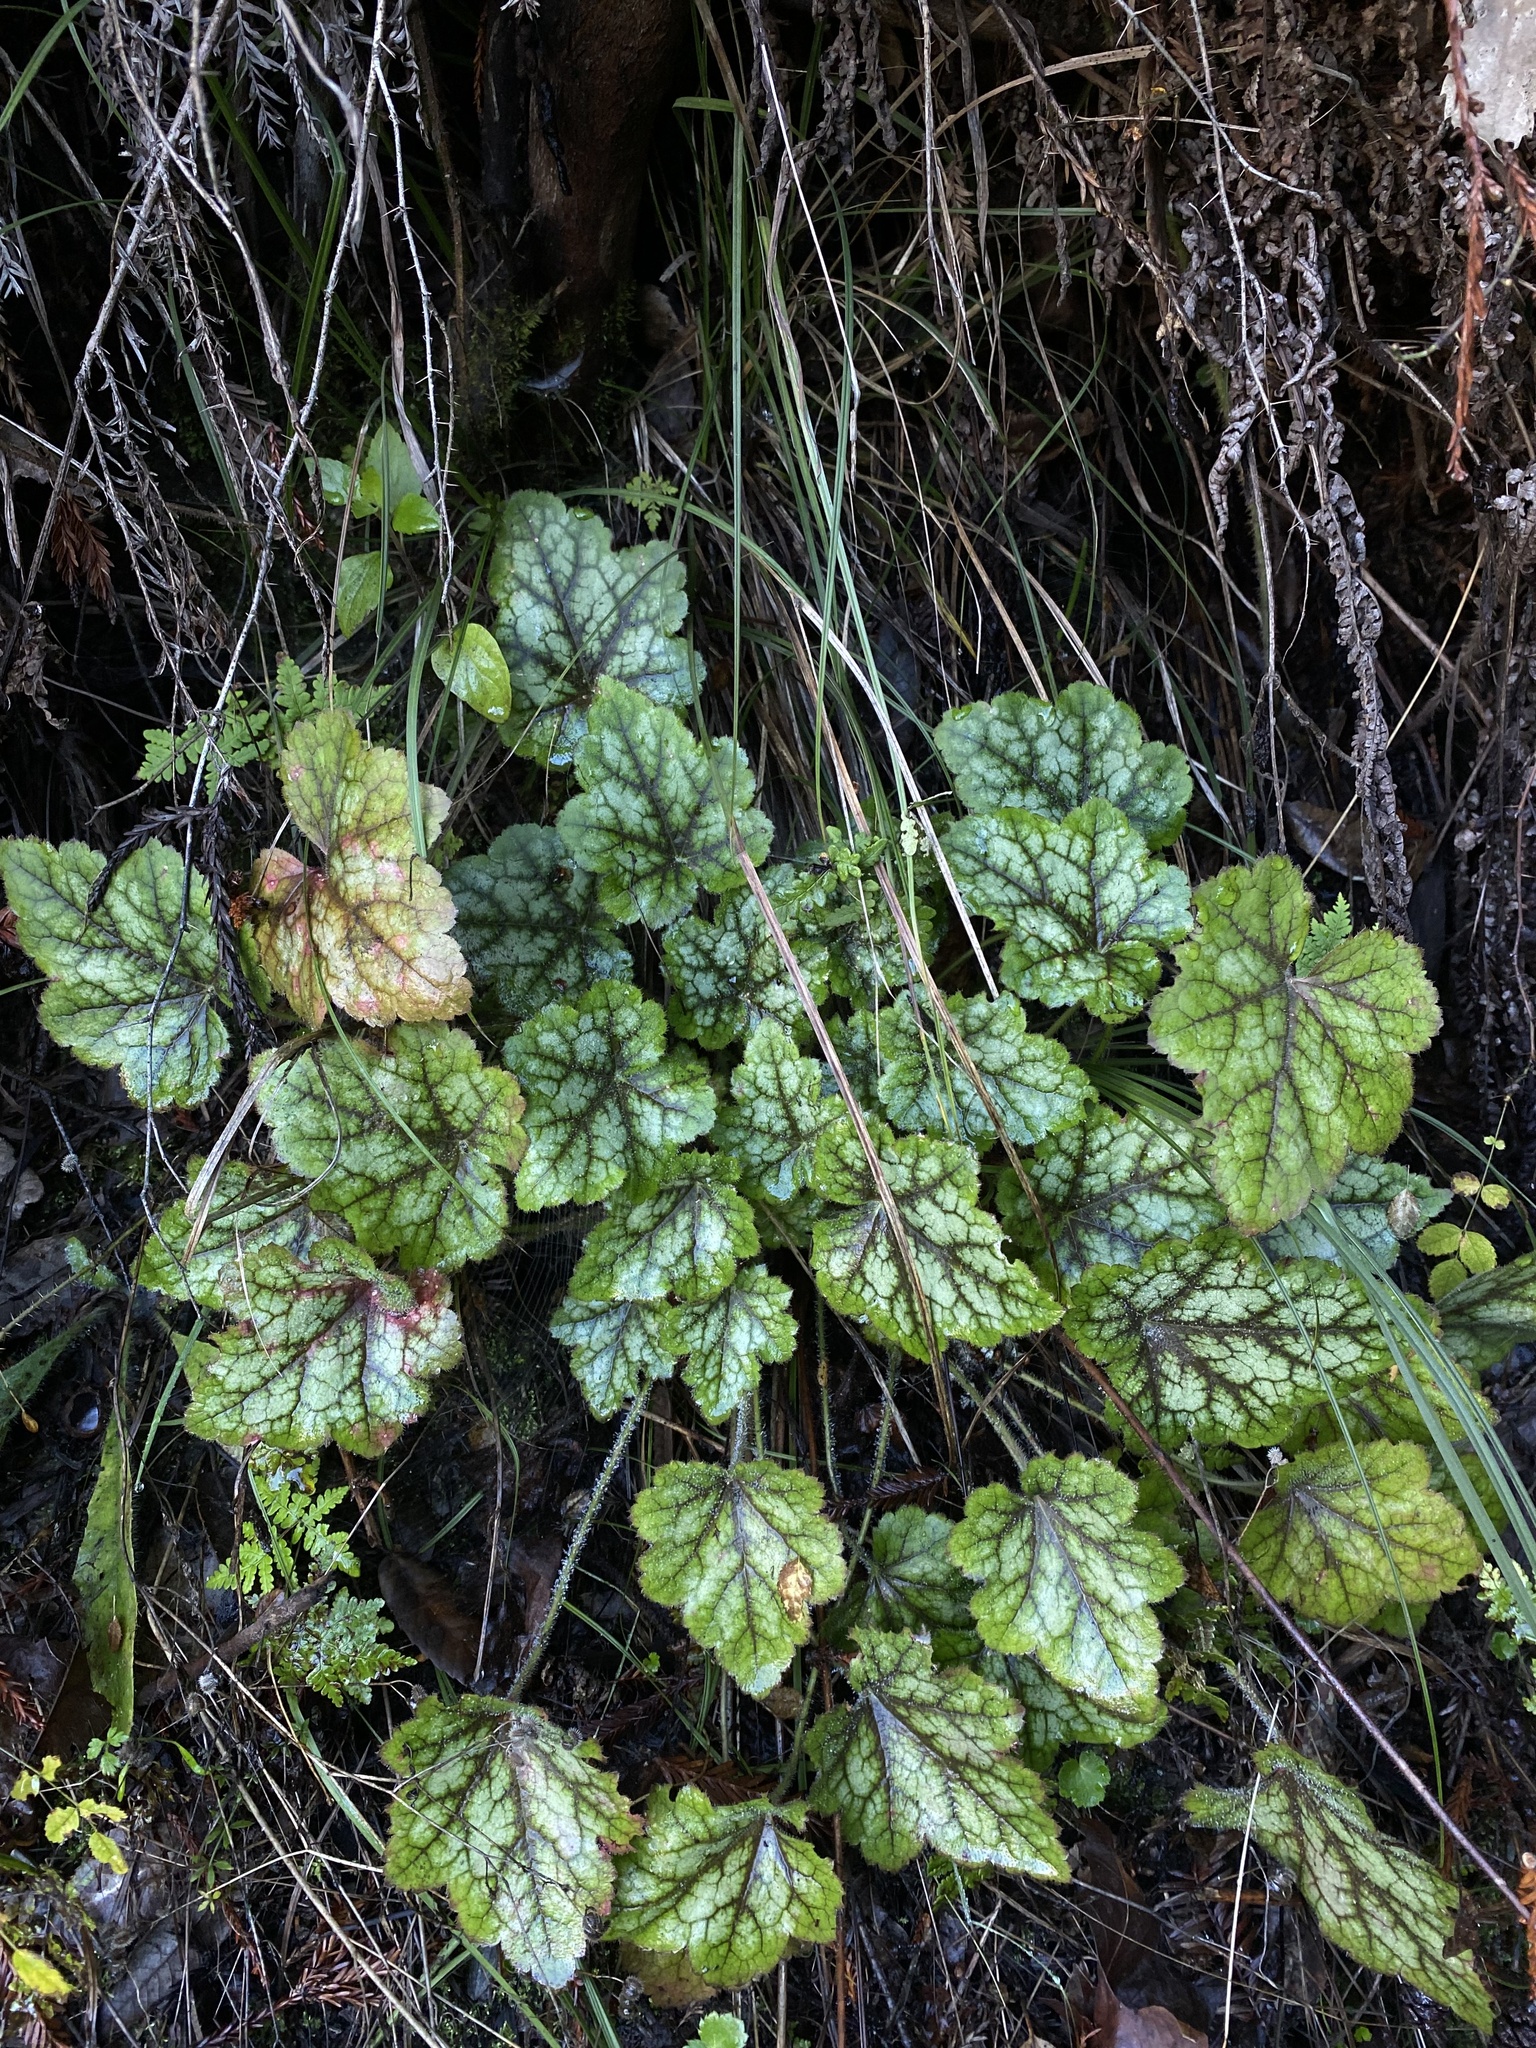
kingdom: Plantae
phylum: Tracheophyta
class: Magnoliopsida
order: Saxifragales
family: Saxifragaceae
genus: Heuchera
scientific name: Heuchera micrantha
